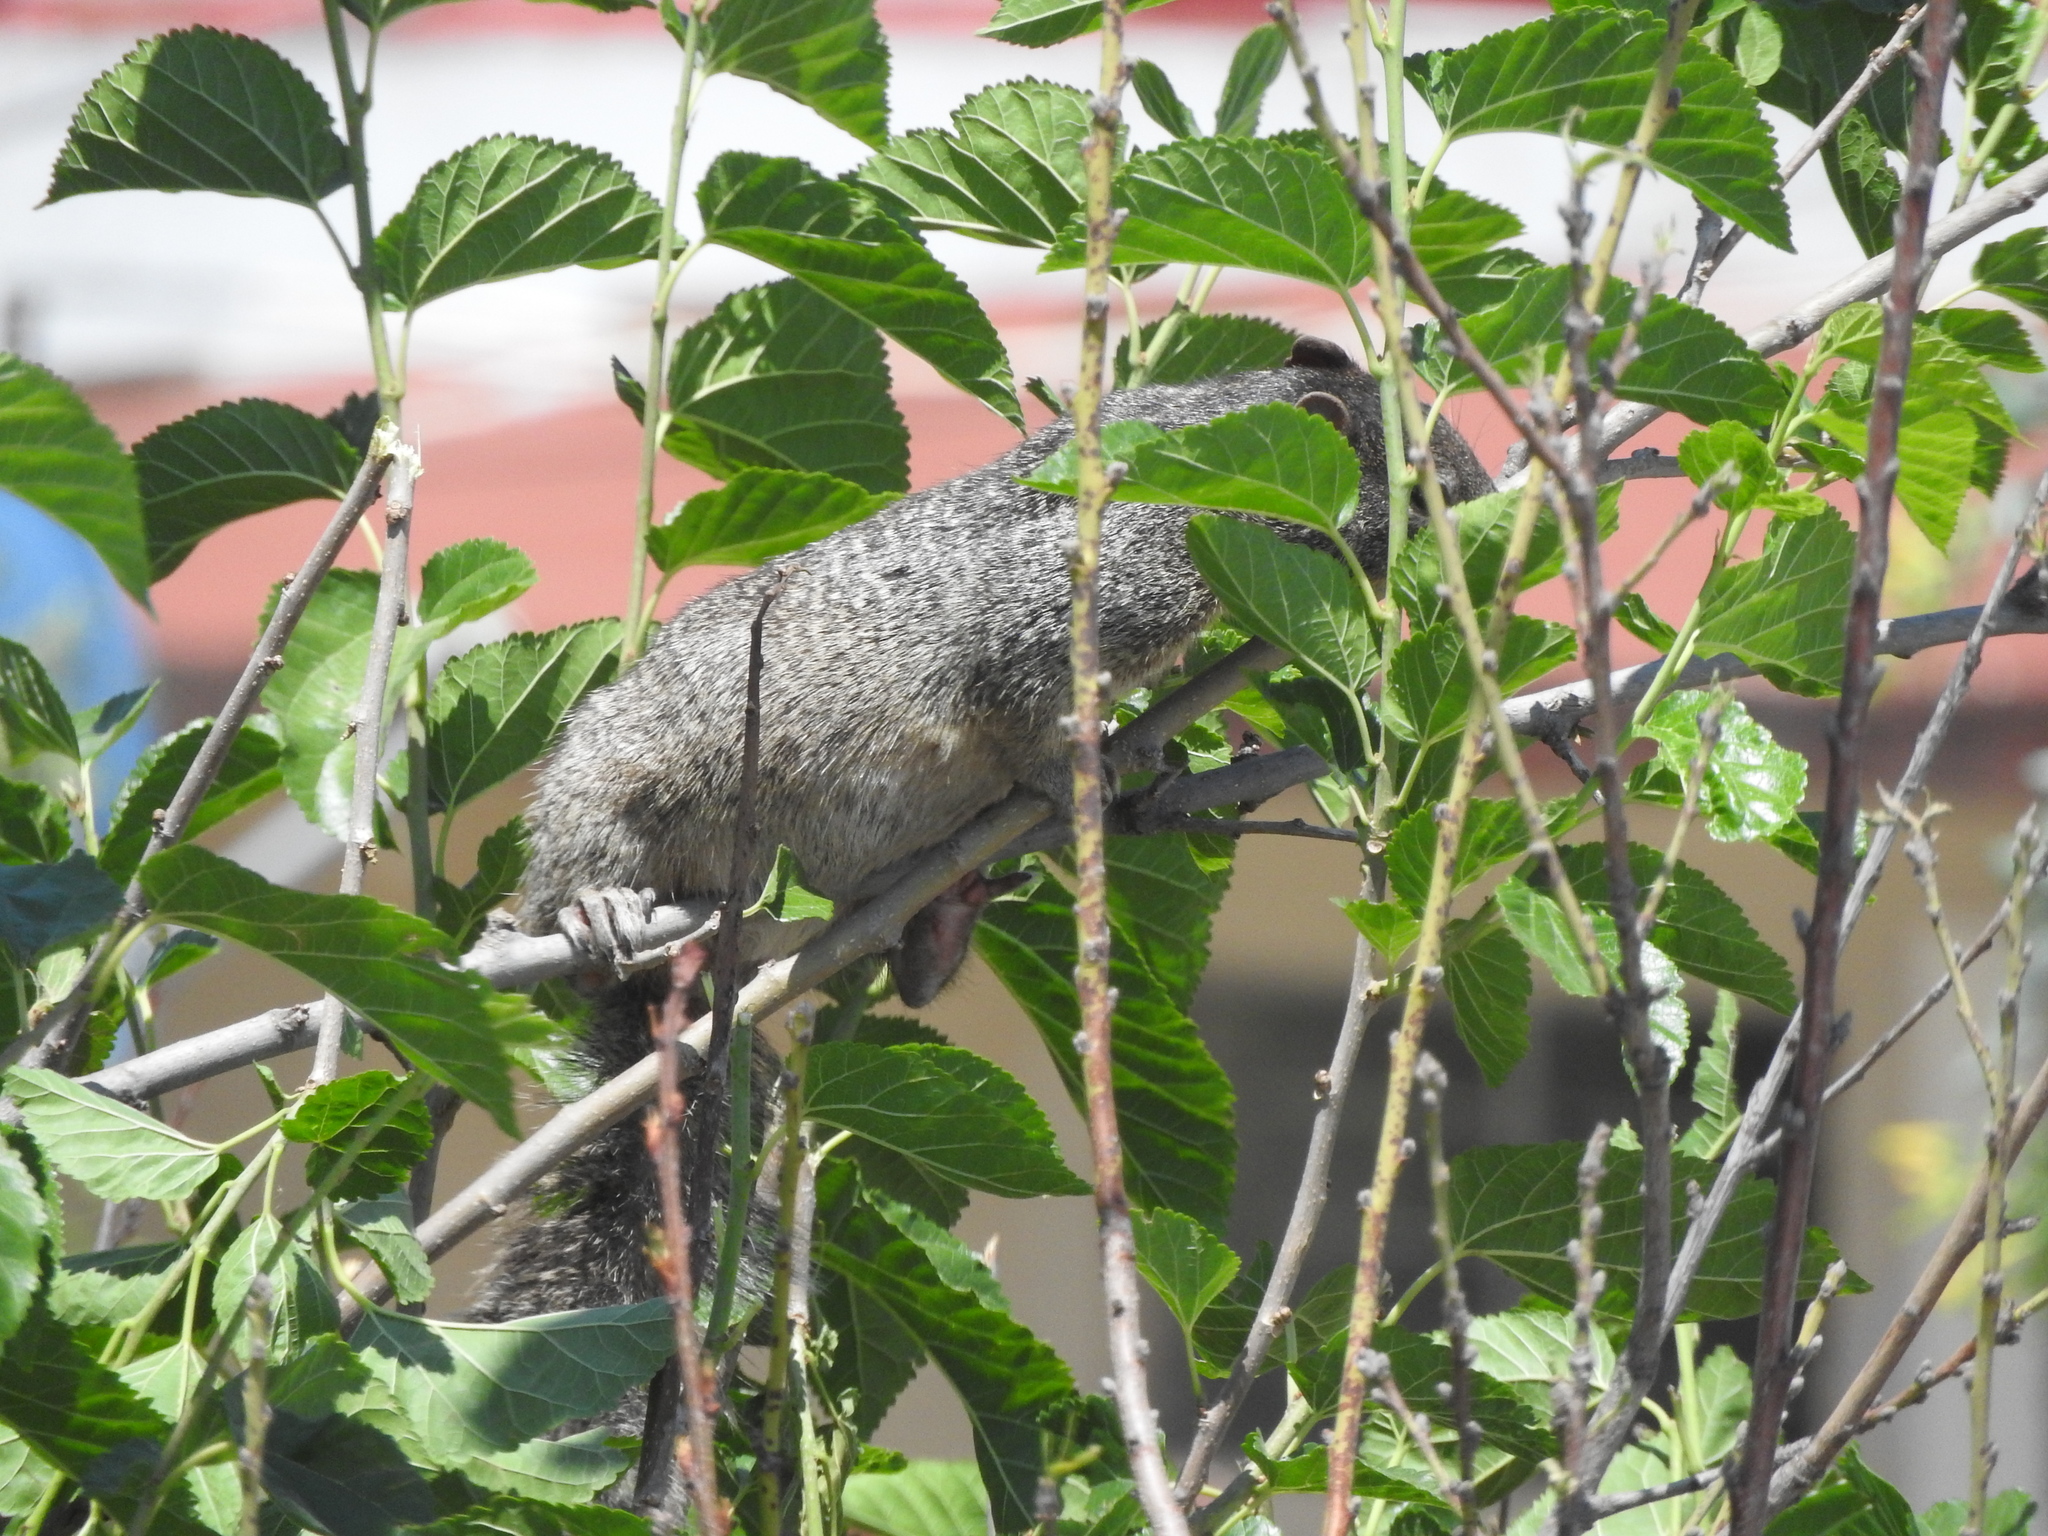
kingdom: Animalia
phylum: Chordata
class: Mammalia
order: Rodentia
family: Sciuridae
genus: Otospermophilus
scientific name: Otospermophilus variegatus
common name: Rock squirrel
